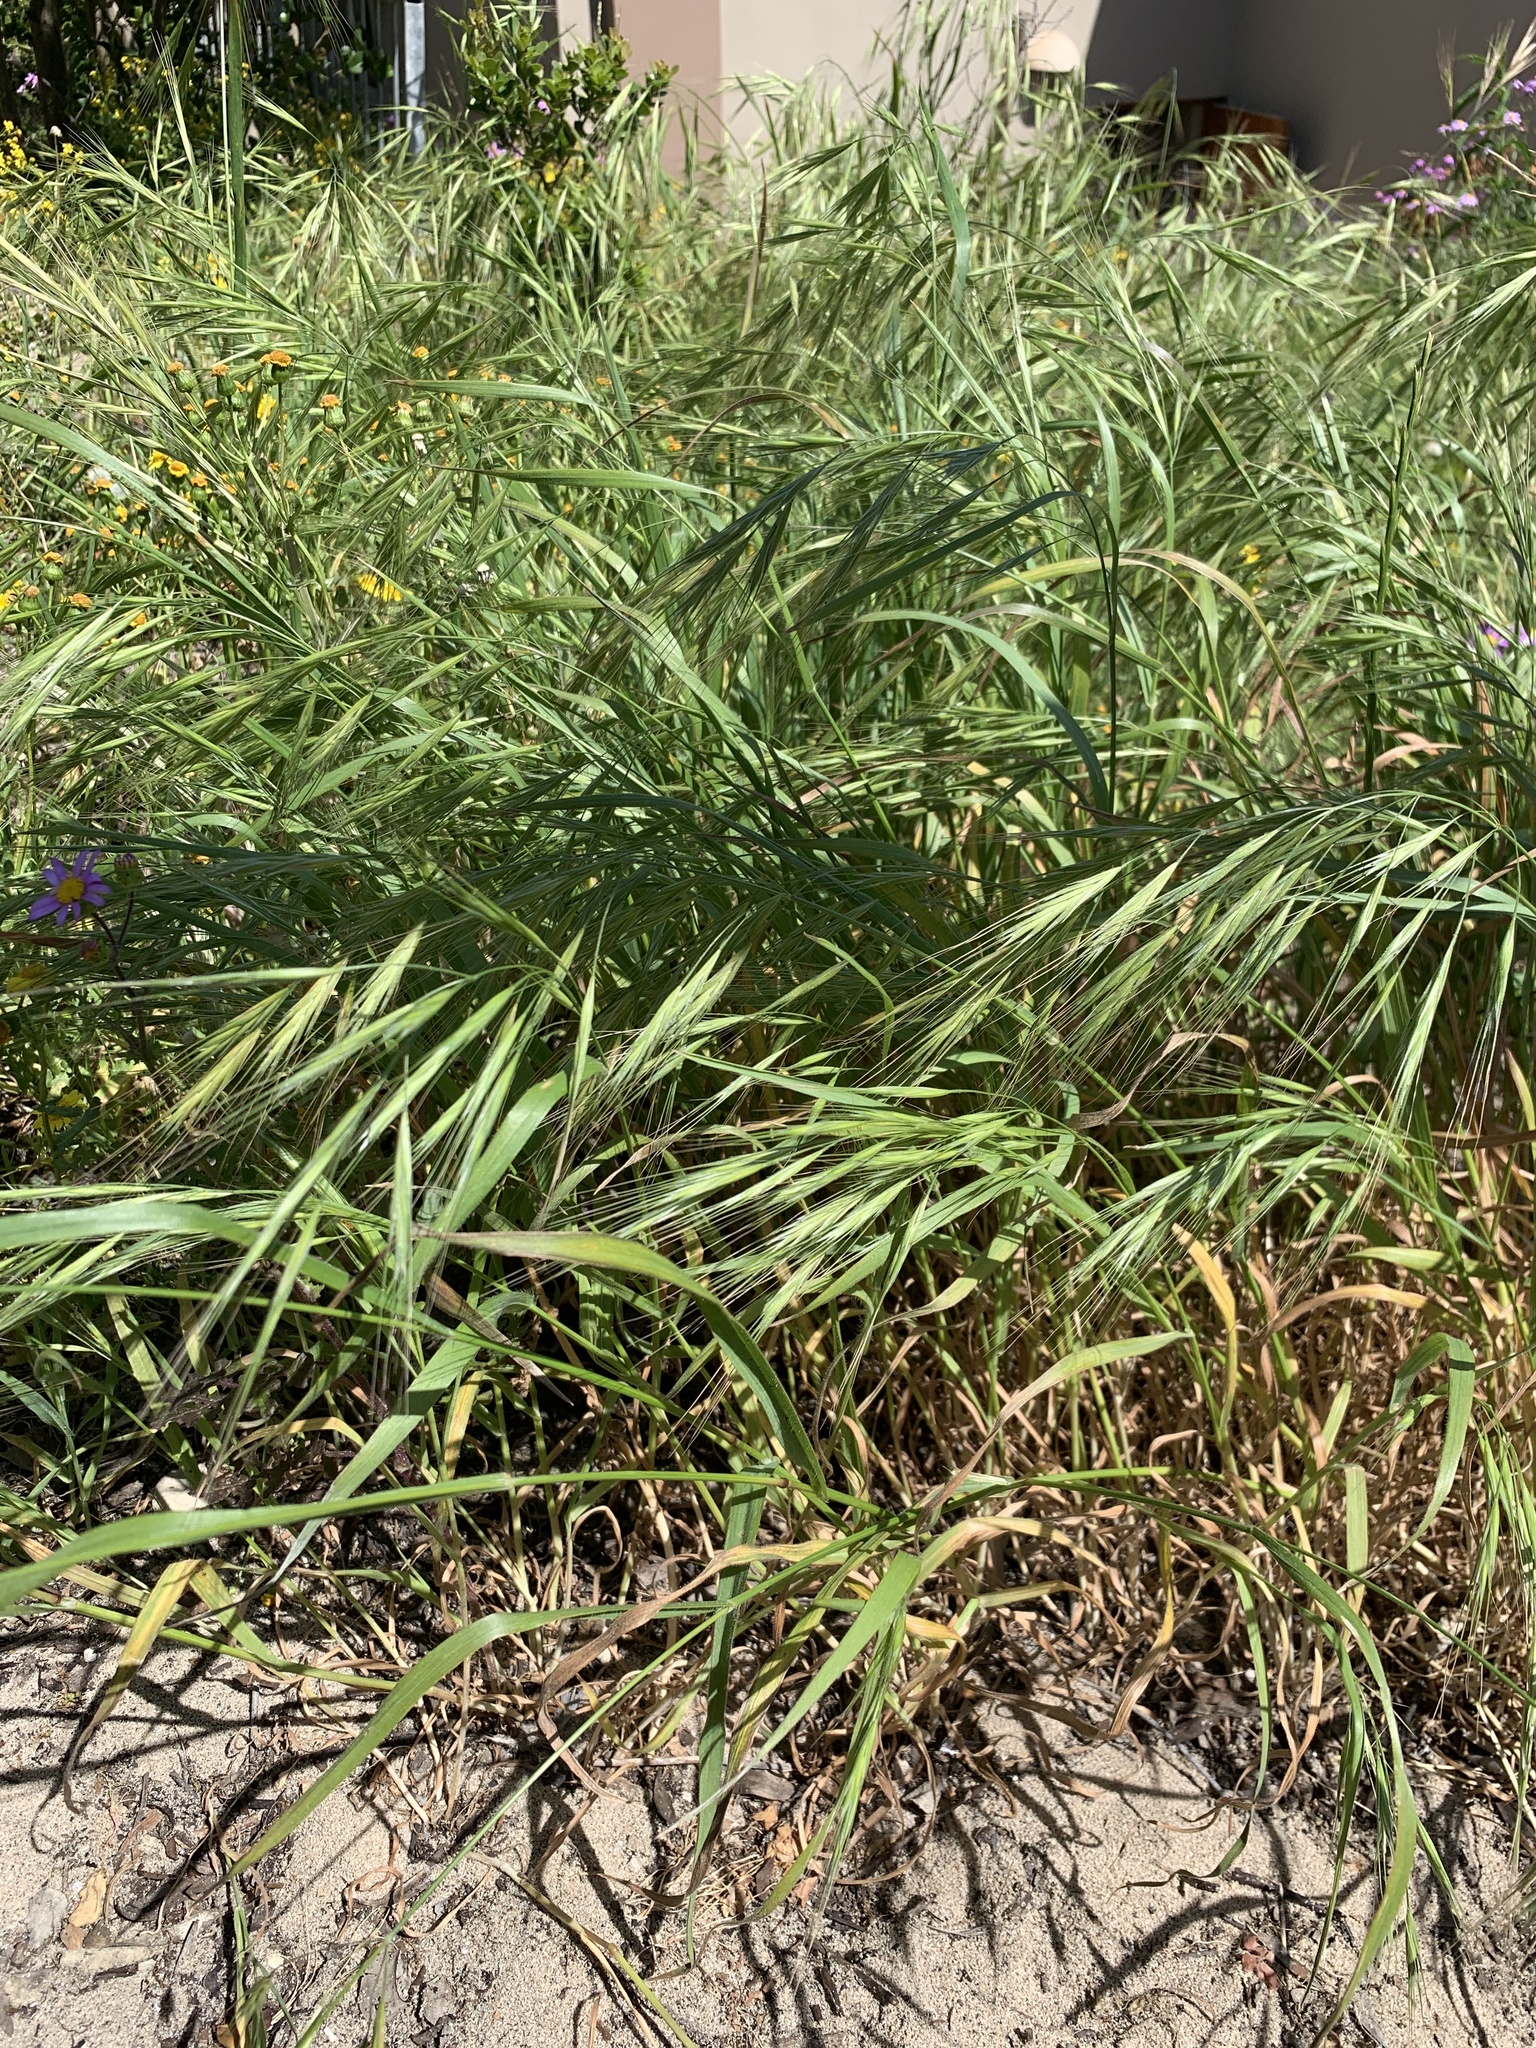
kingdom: Plantae
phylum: Tracheophyta
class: Liliopsida
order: Poales
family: Poaceae
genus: Bromus
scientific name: Bromus diandrus
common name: Ripgut brome
